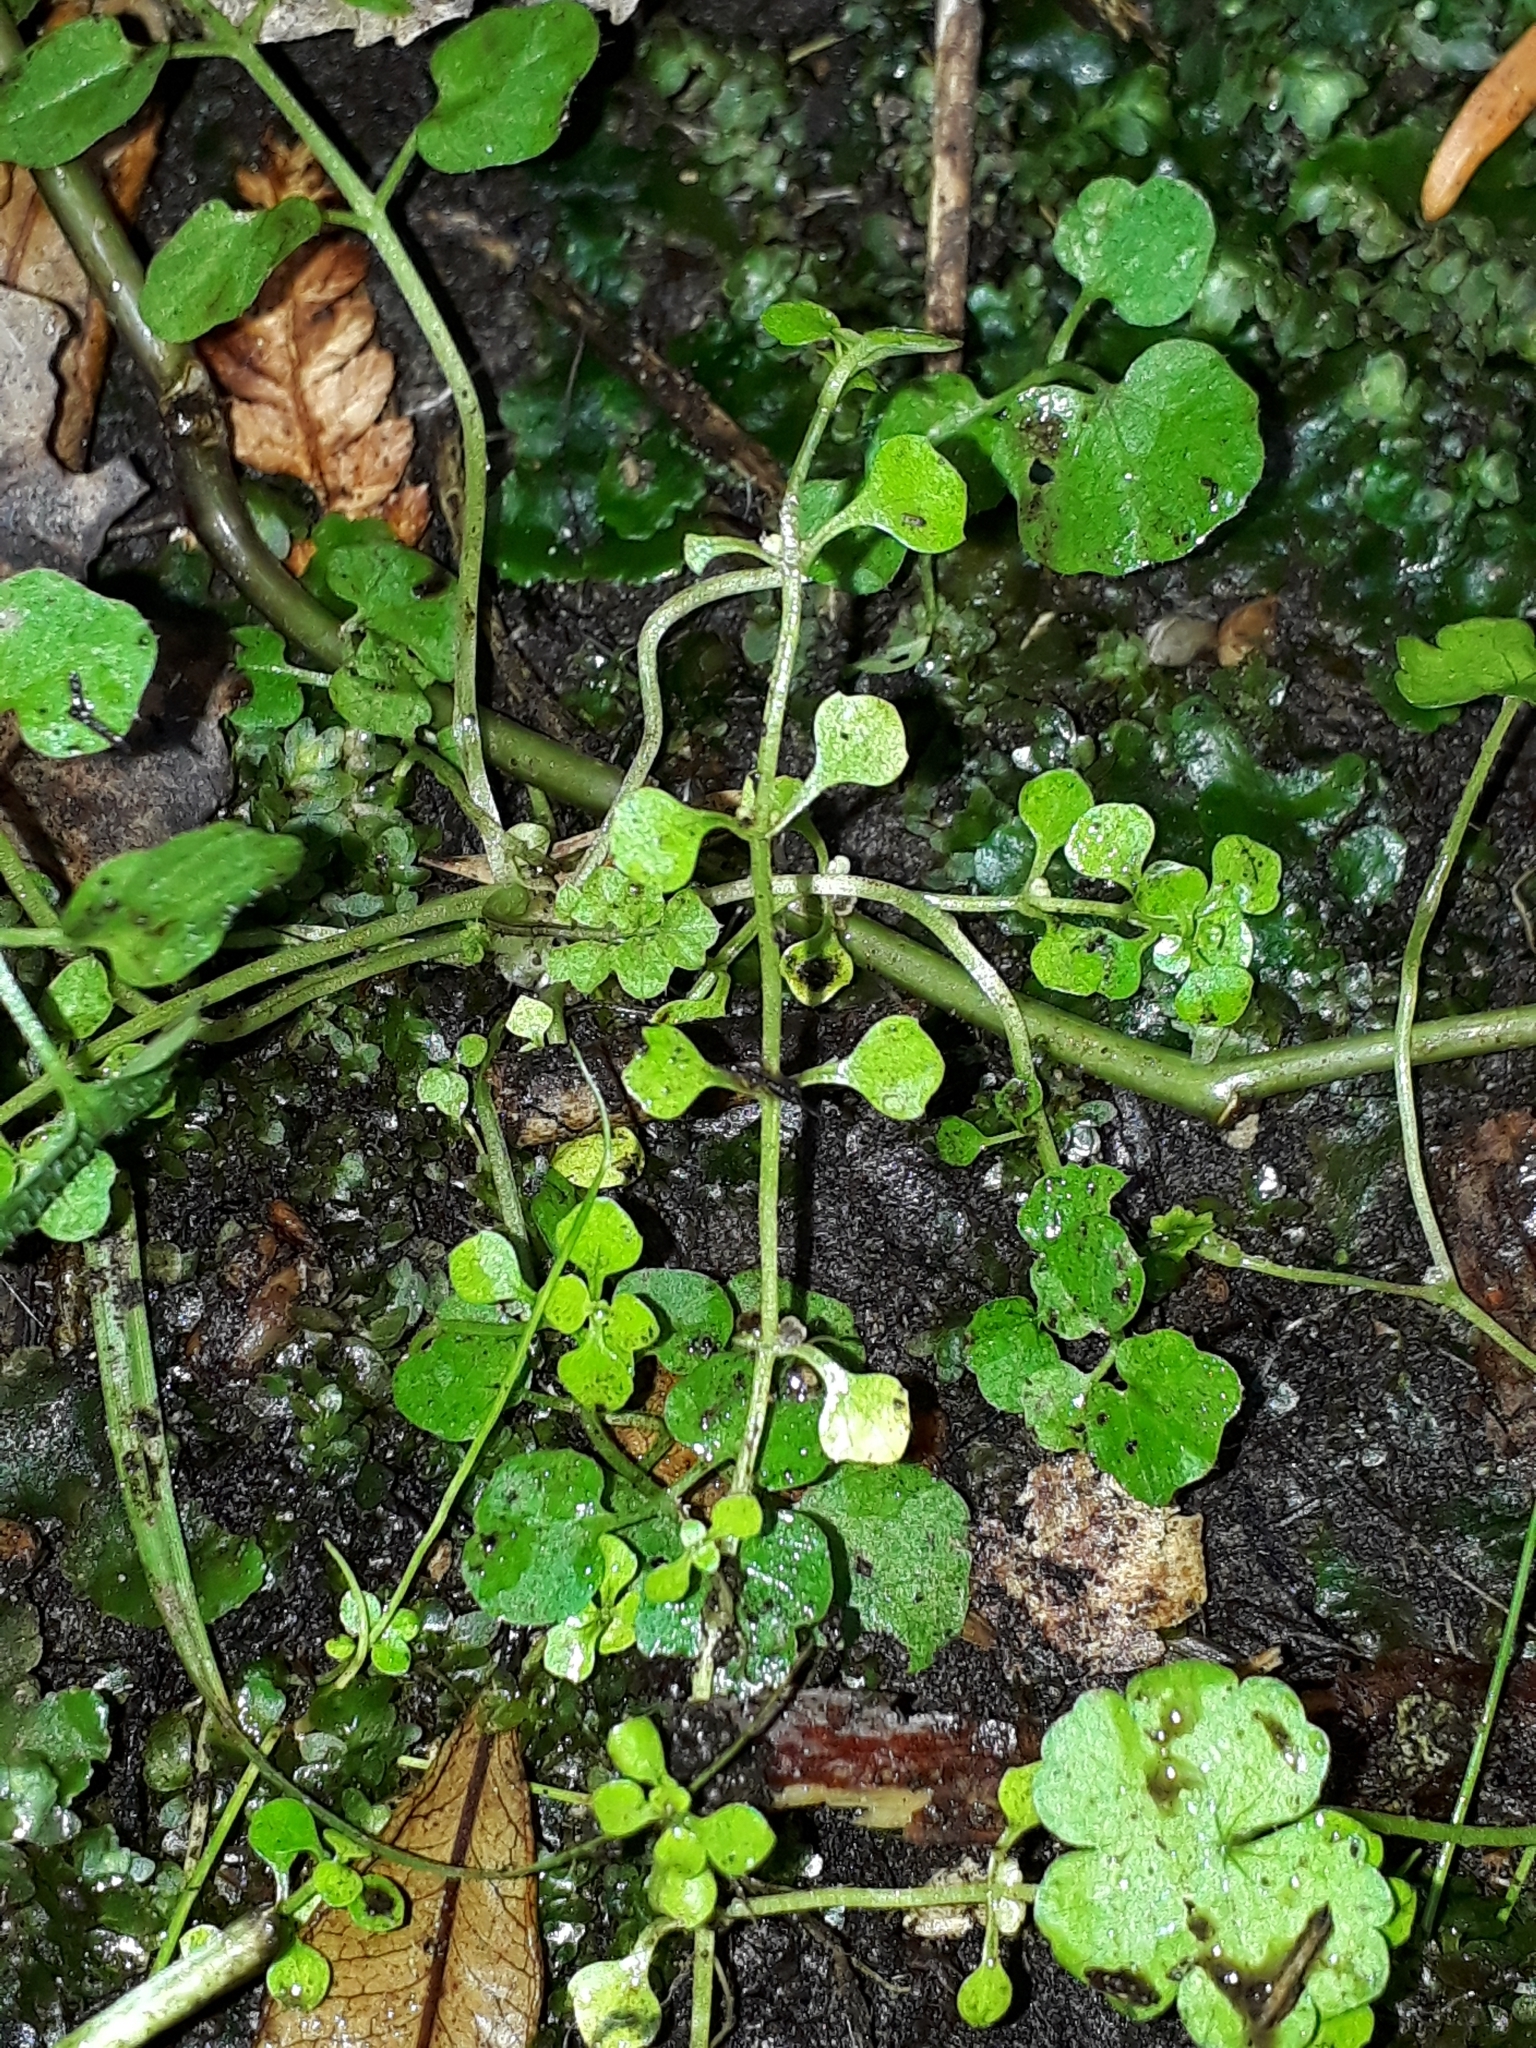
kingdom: Plantae
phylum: Tracheophyta
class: Magnoliopsida
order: Lamiales
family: Plantaginaceae
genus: Callitriche
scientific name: Callitriche muelleri
